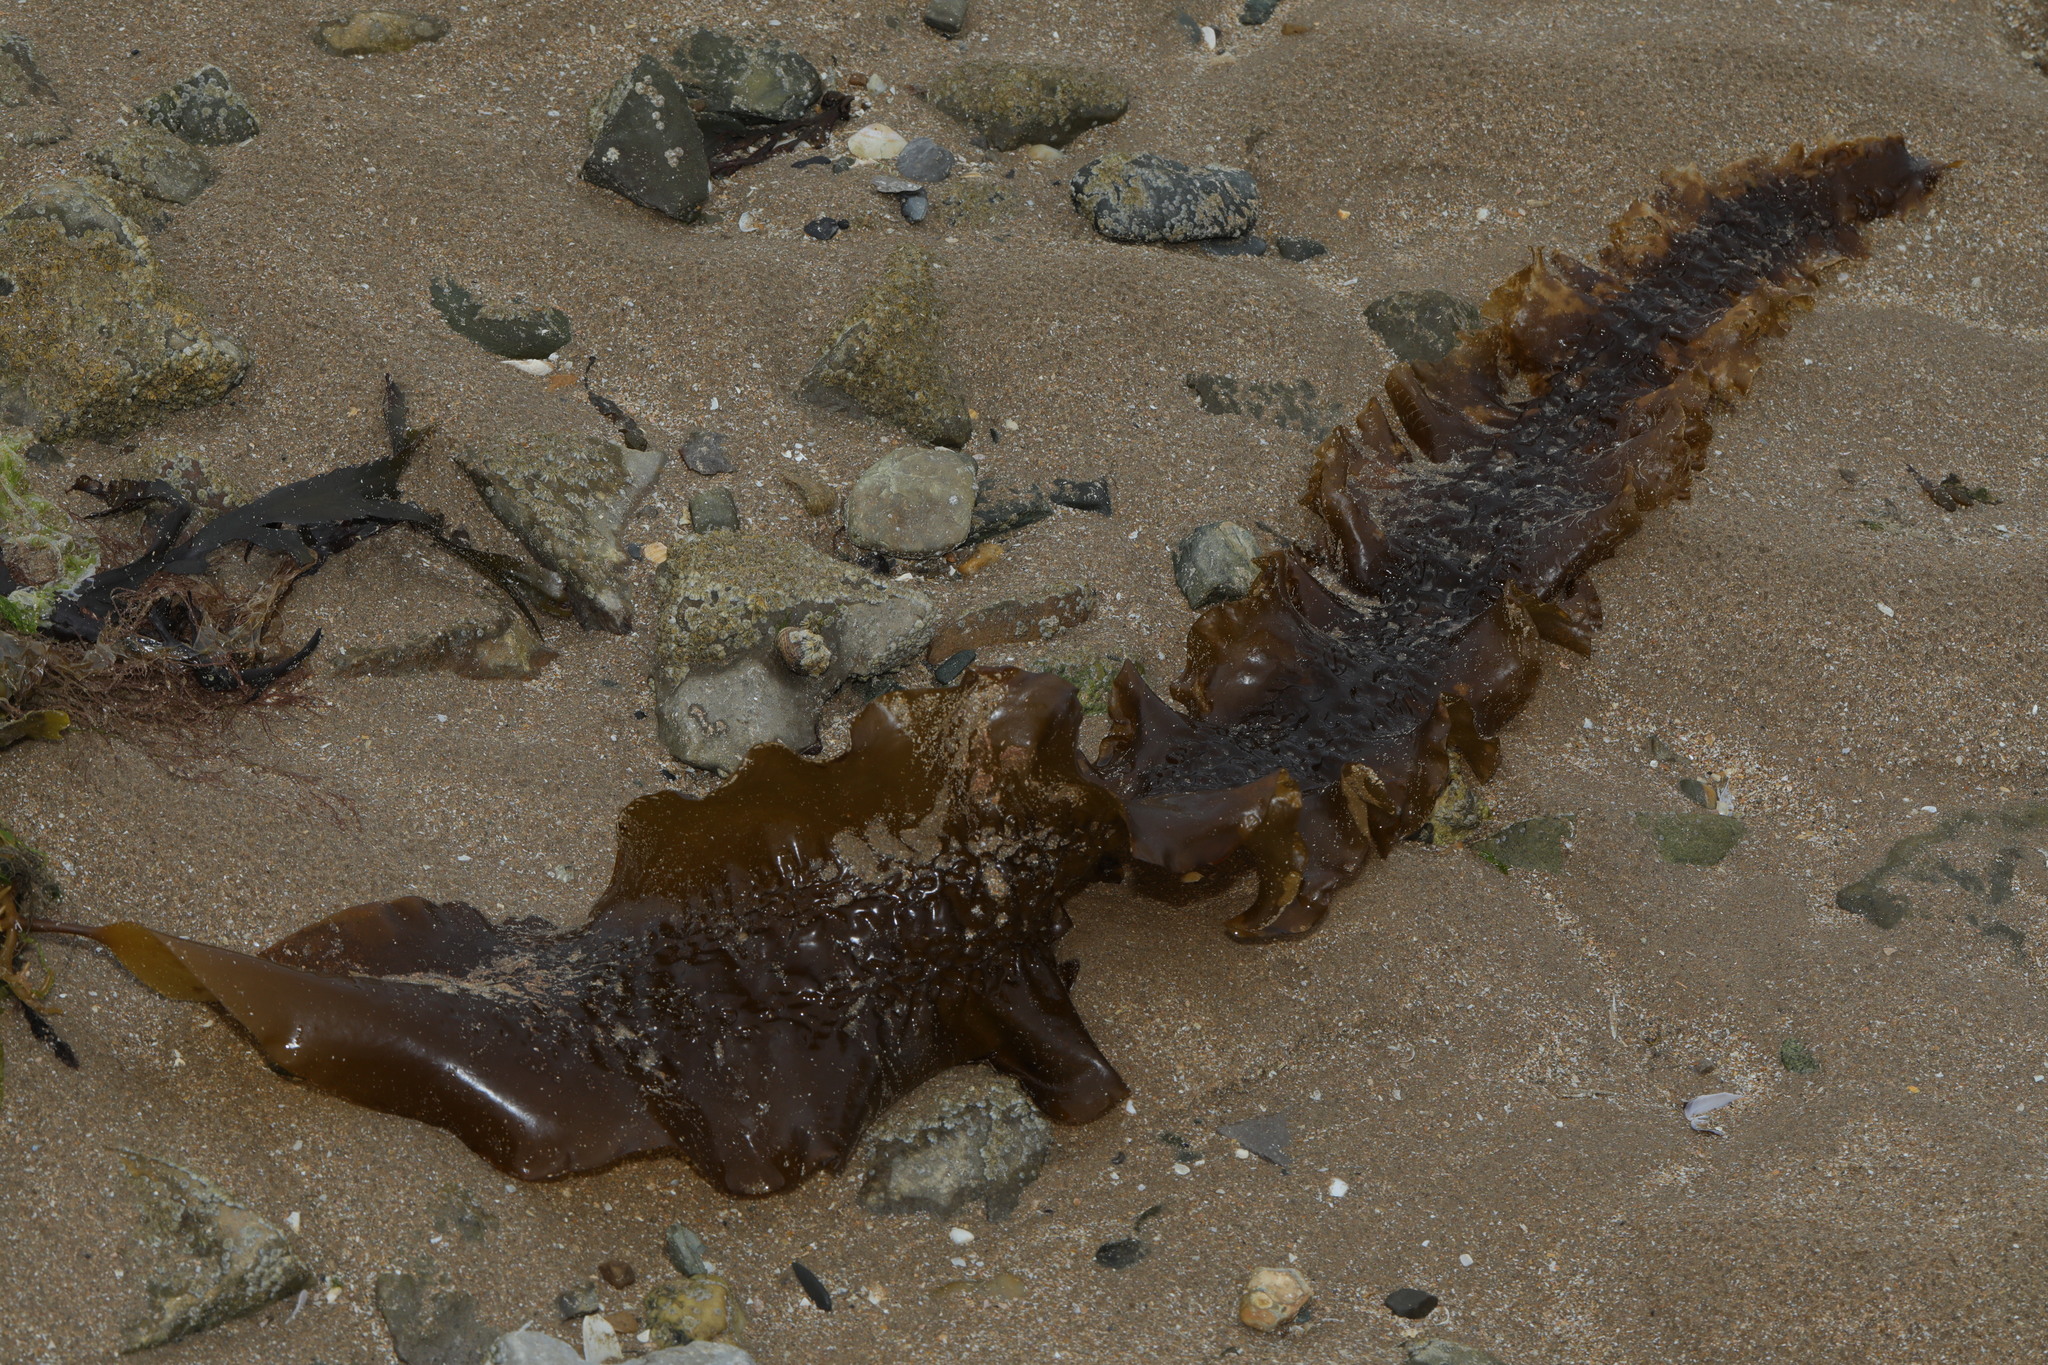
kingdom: Chromista
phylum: Ochrophyta
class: Phaeophyceae
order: Laminariales
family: Laminariaceae
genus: Saccharina
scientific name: Saccharina latissima
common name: Poor man's weather glass
